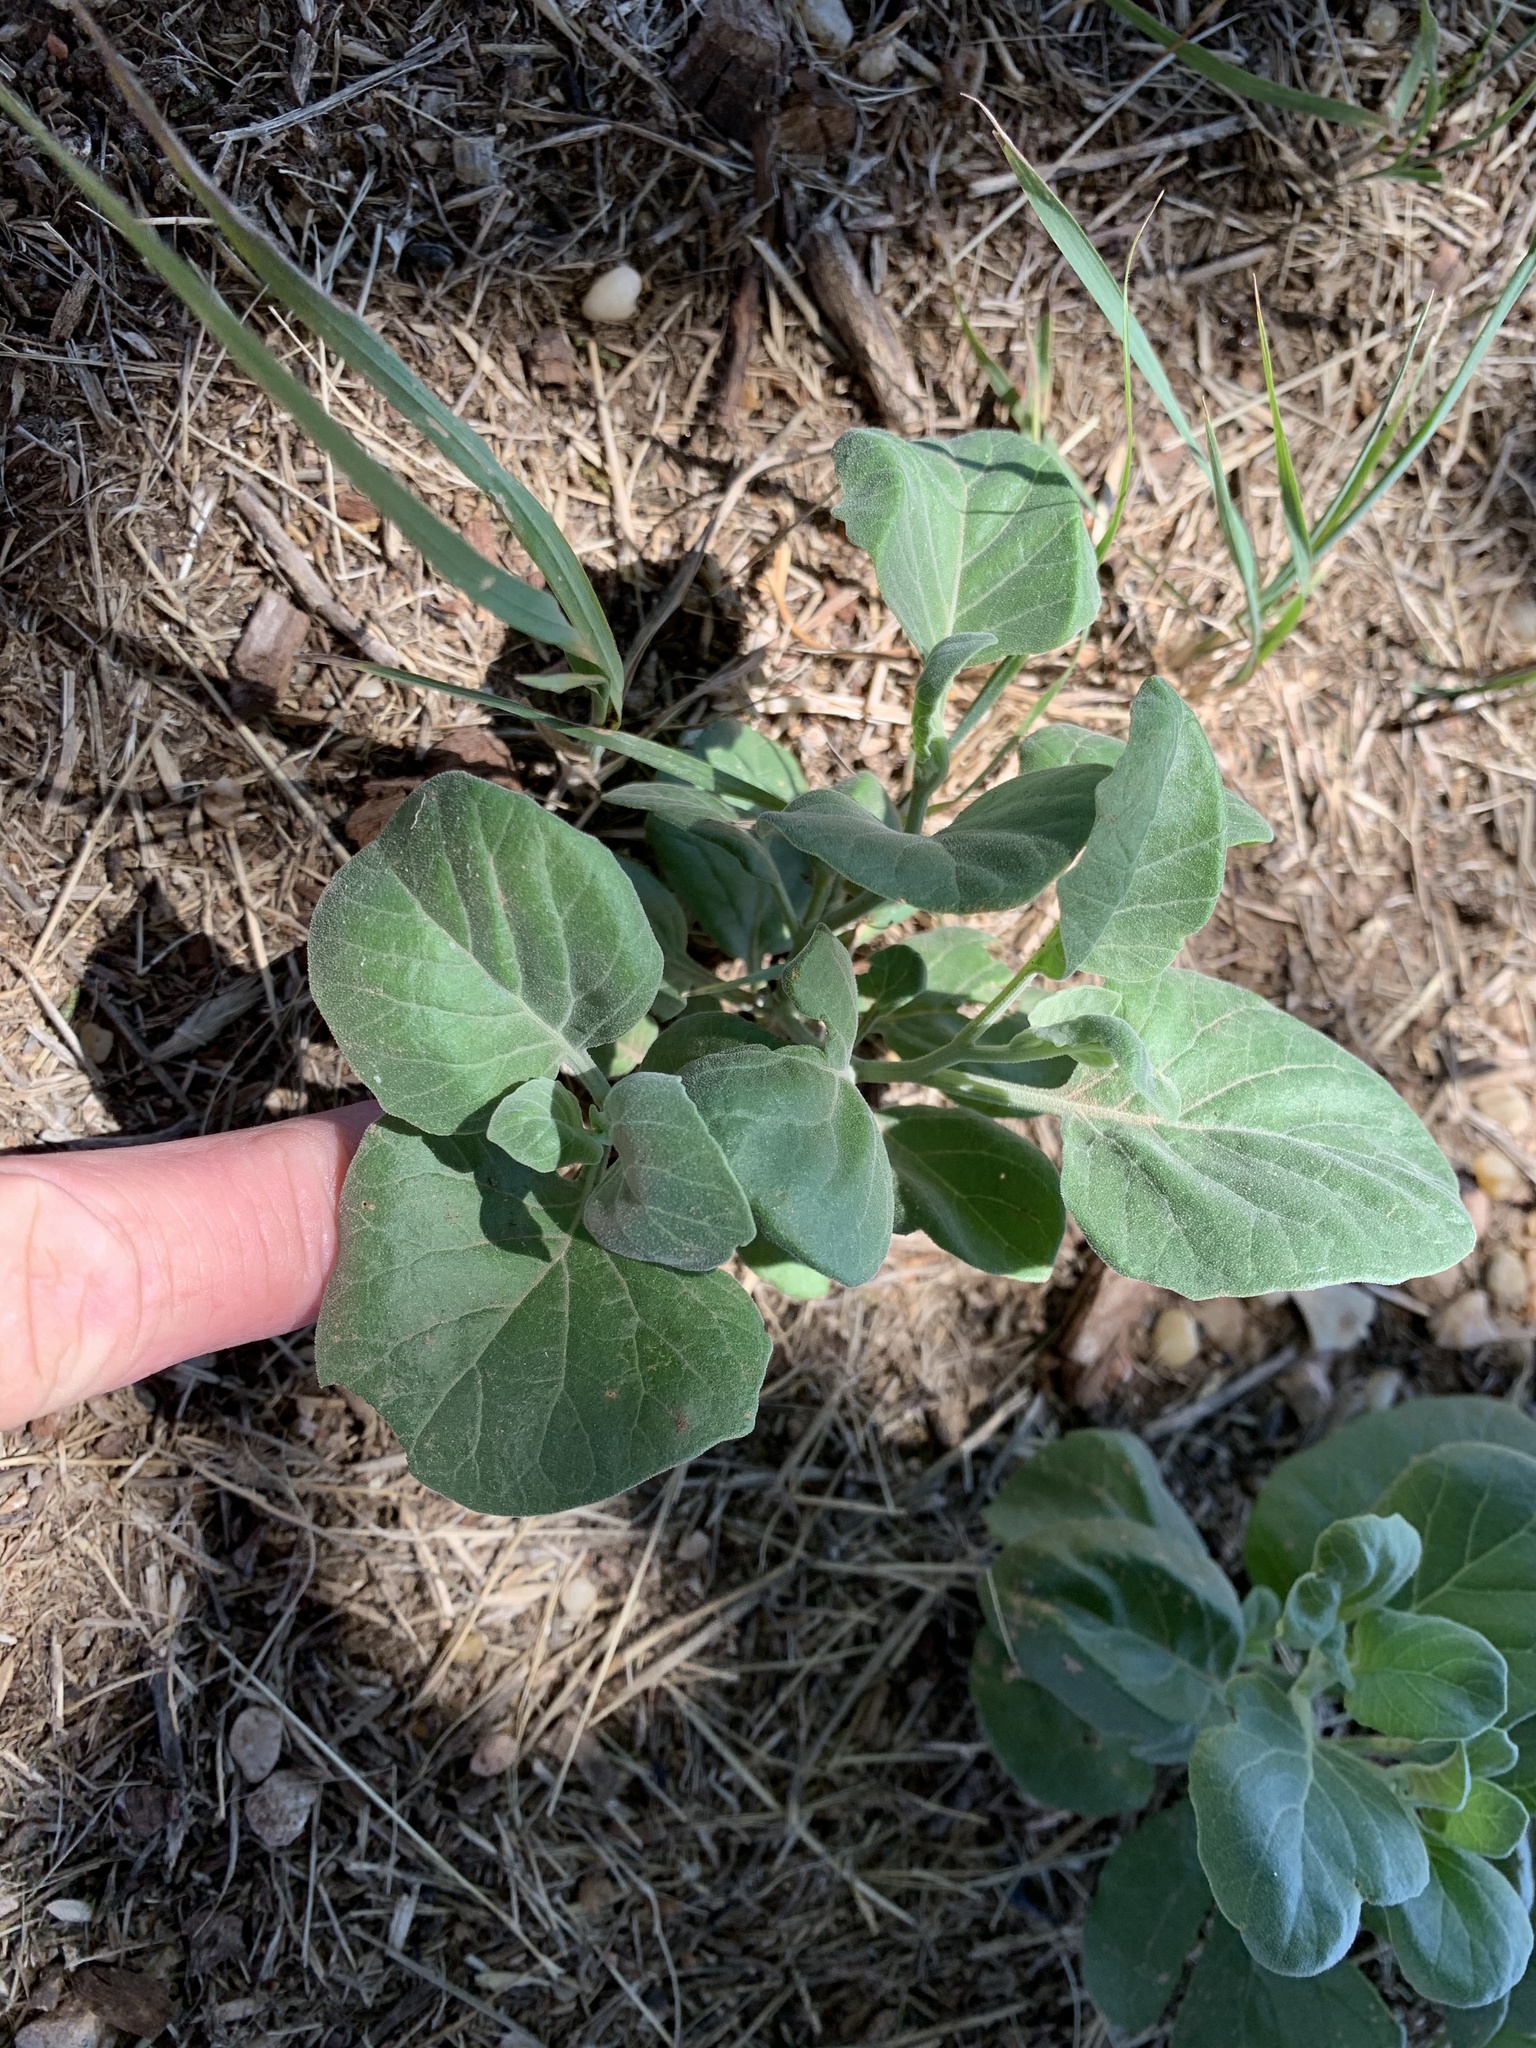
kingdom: Plantae
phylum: Tracheophyta
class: Magnoliopsida
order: Solanales
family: Solanaceae
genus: Physalis
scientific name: Physalis cinerascens
